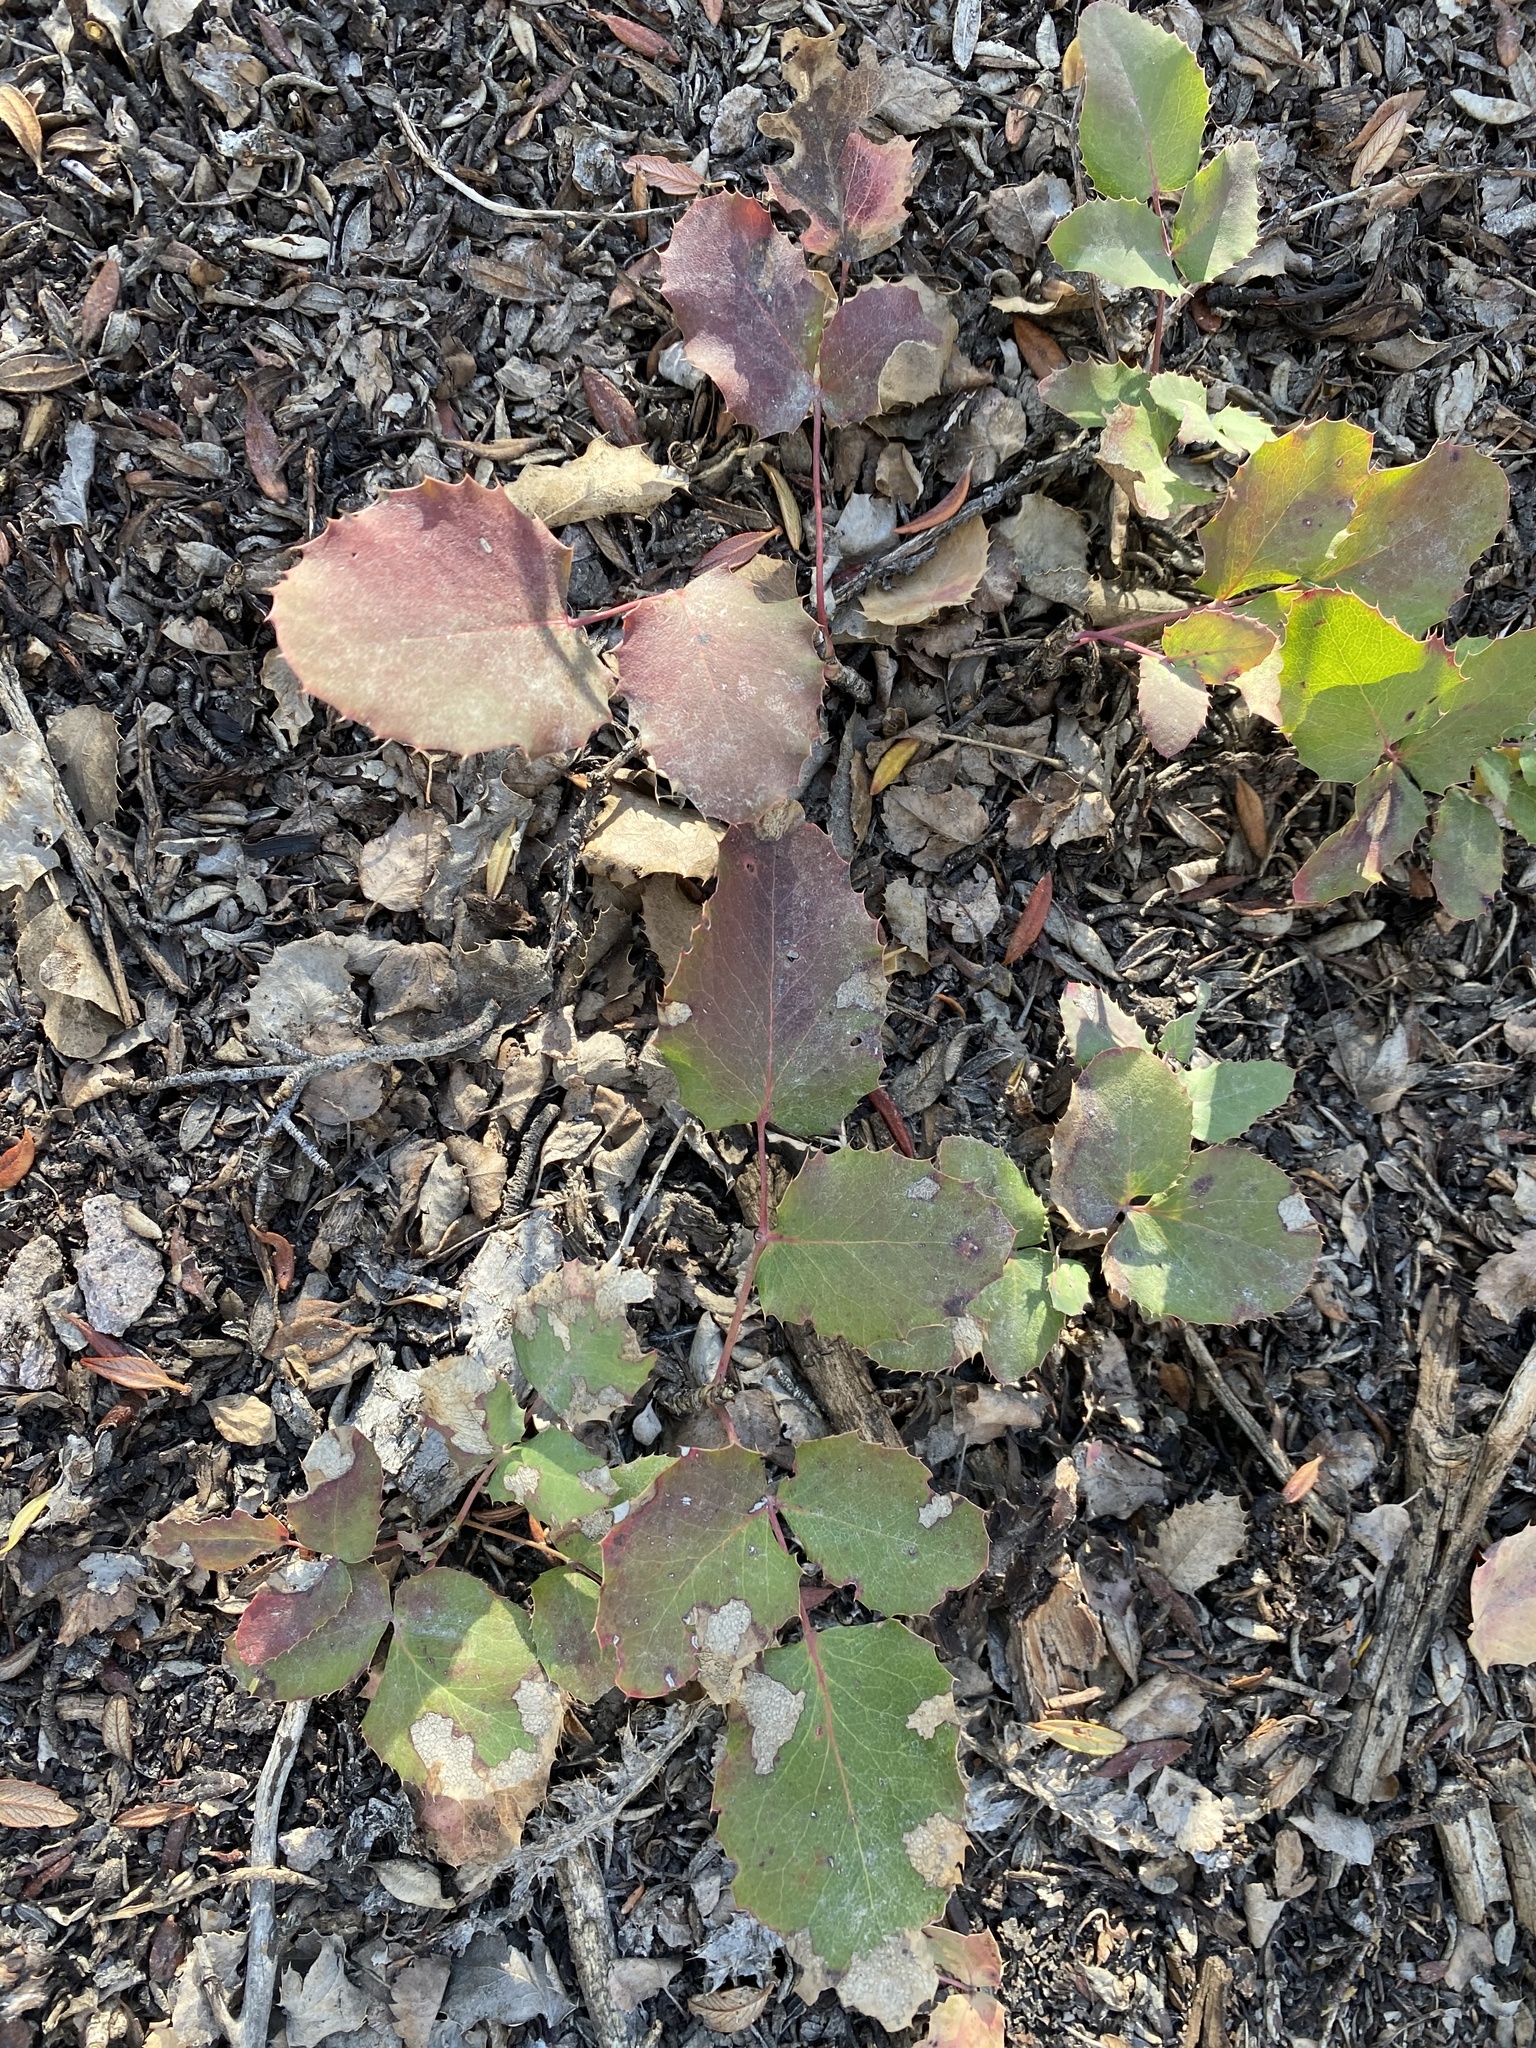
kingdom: Plantae
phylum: Tracheophyta
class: Magnoliopsida
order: Ranunculales
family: Berberidaceae
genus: Mahonia
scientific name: Mahonia repens
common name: Creeping oregon-grape
